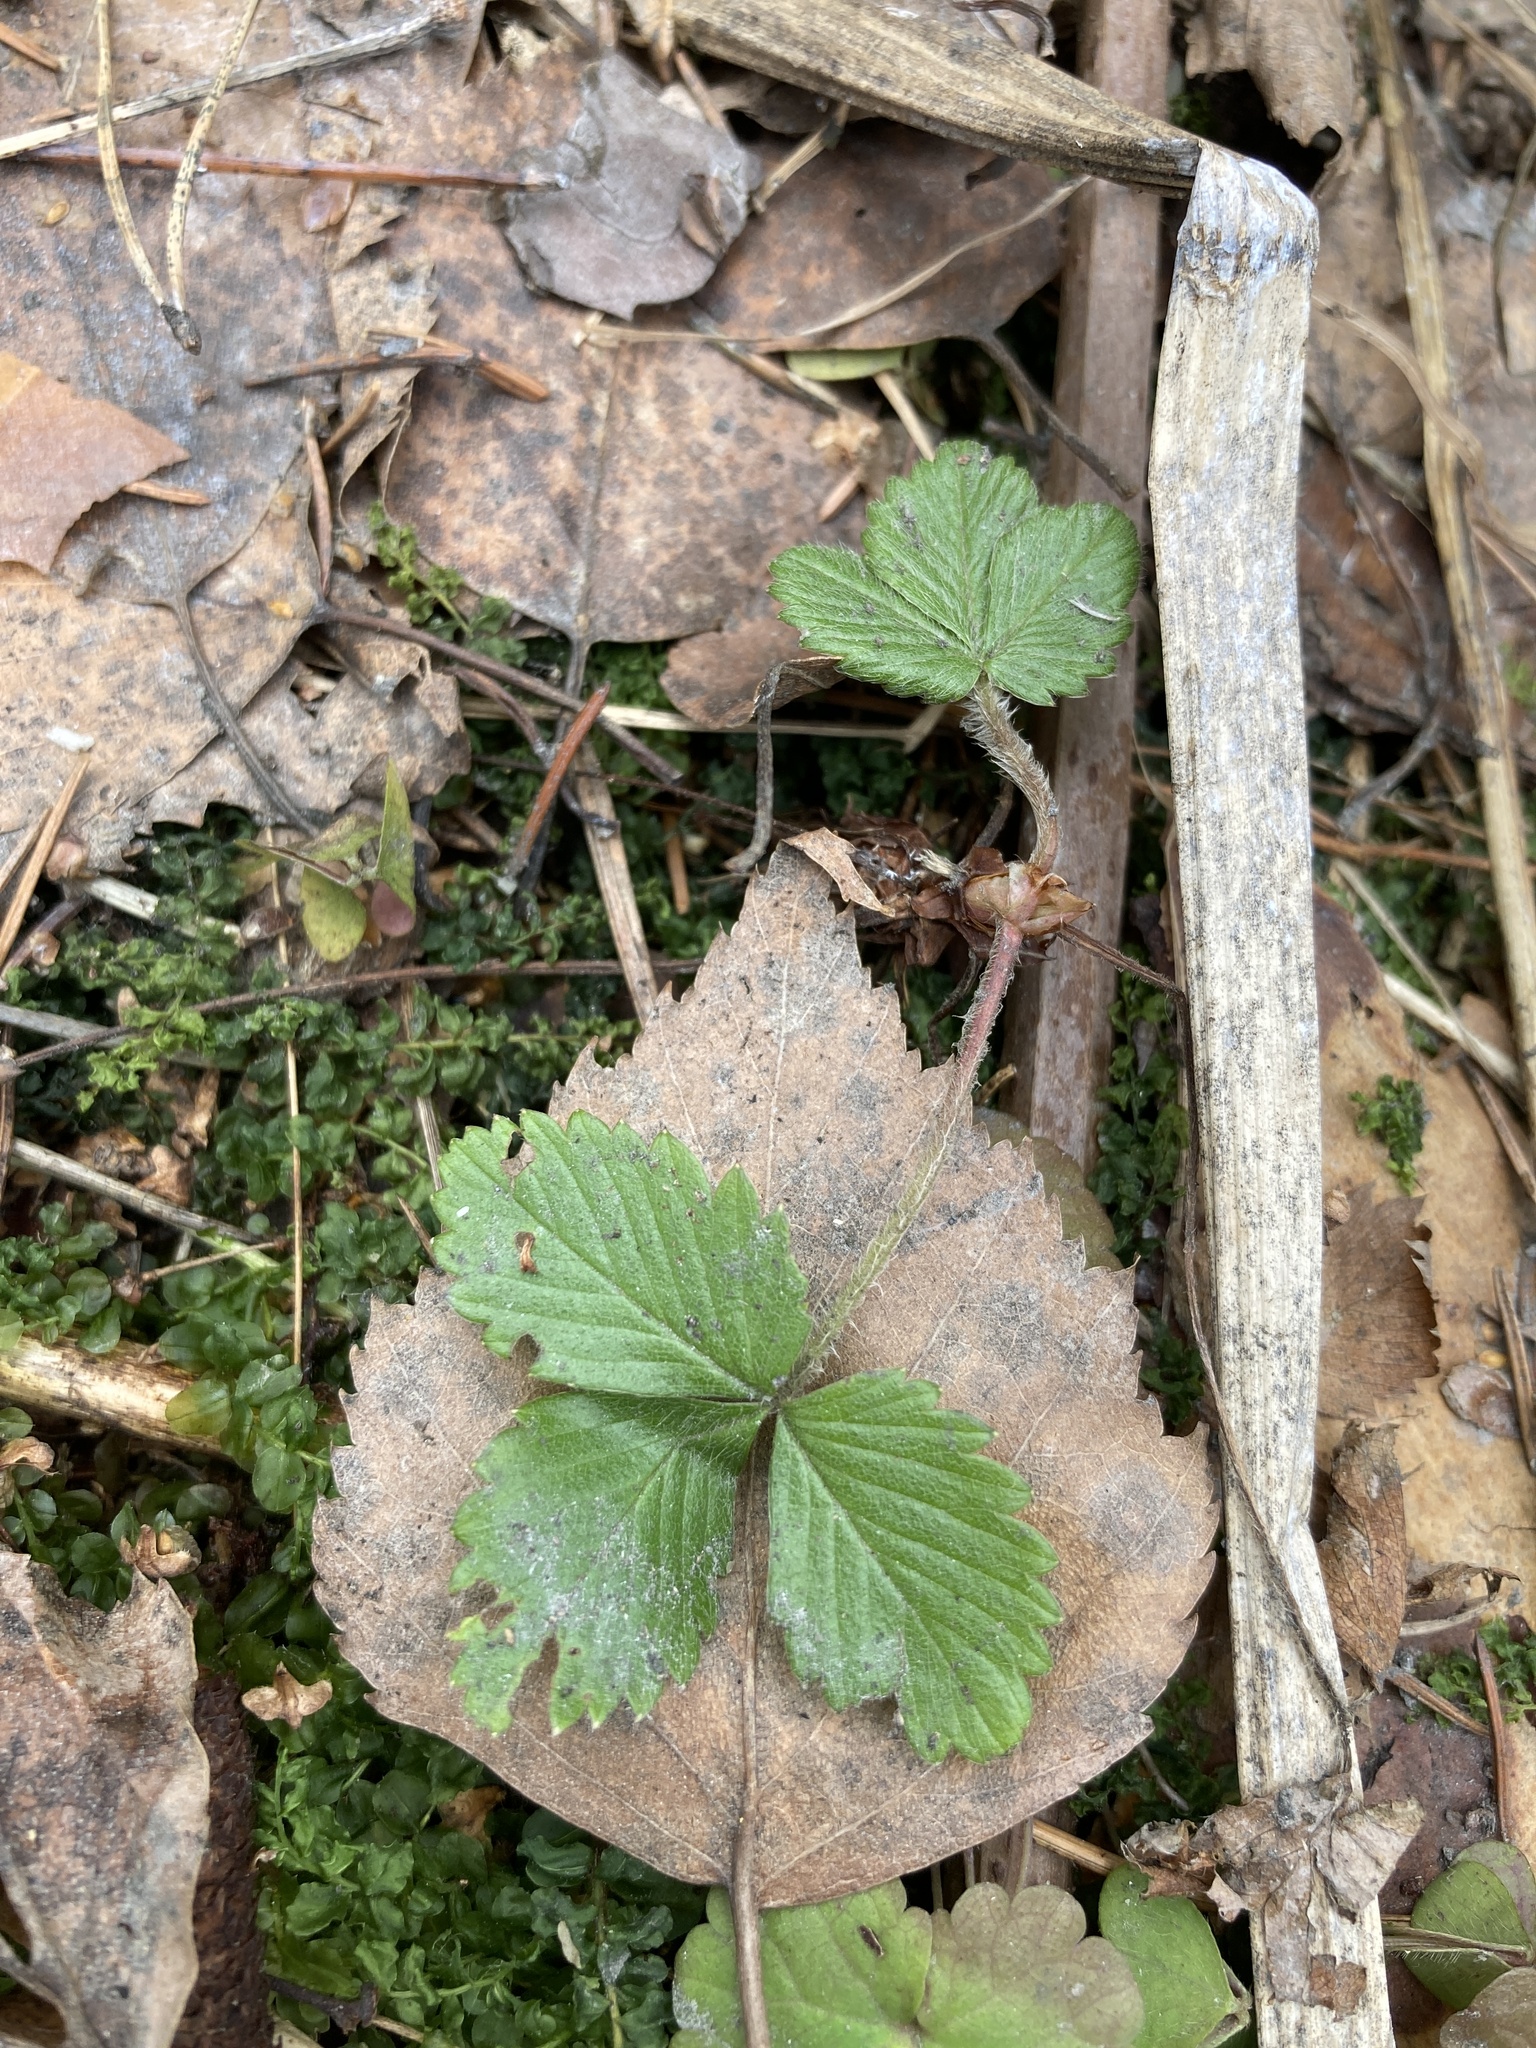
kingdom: Plantae
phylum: Tracheophyta
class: Magnoliopsida
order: Rosales
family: Rosaceae
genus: Fragaria
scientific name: Fragaria vesca
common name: Wild strawberry
